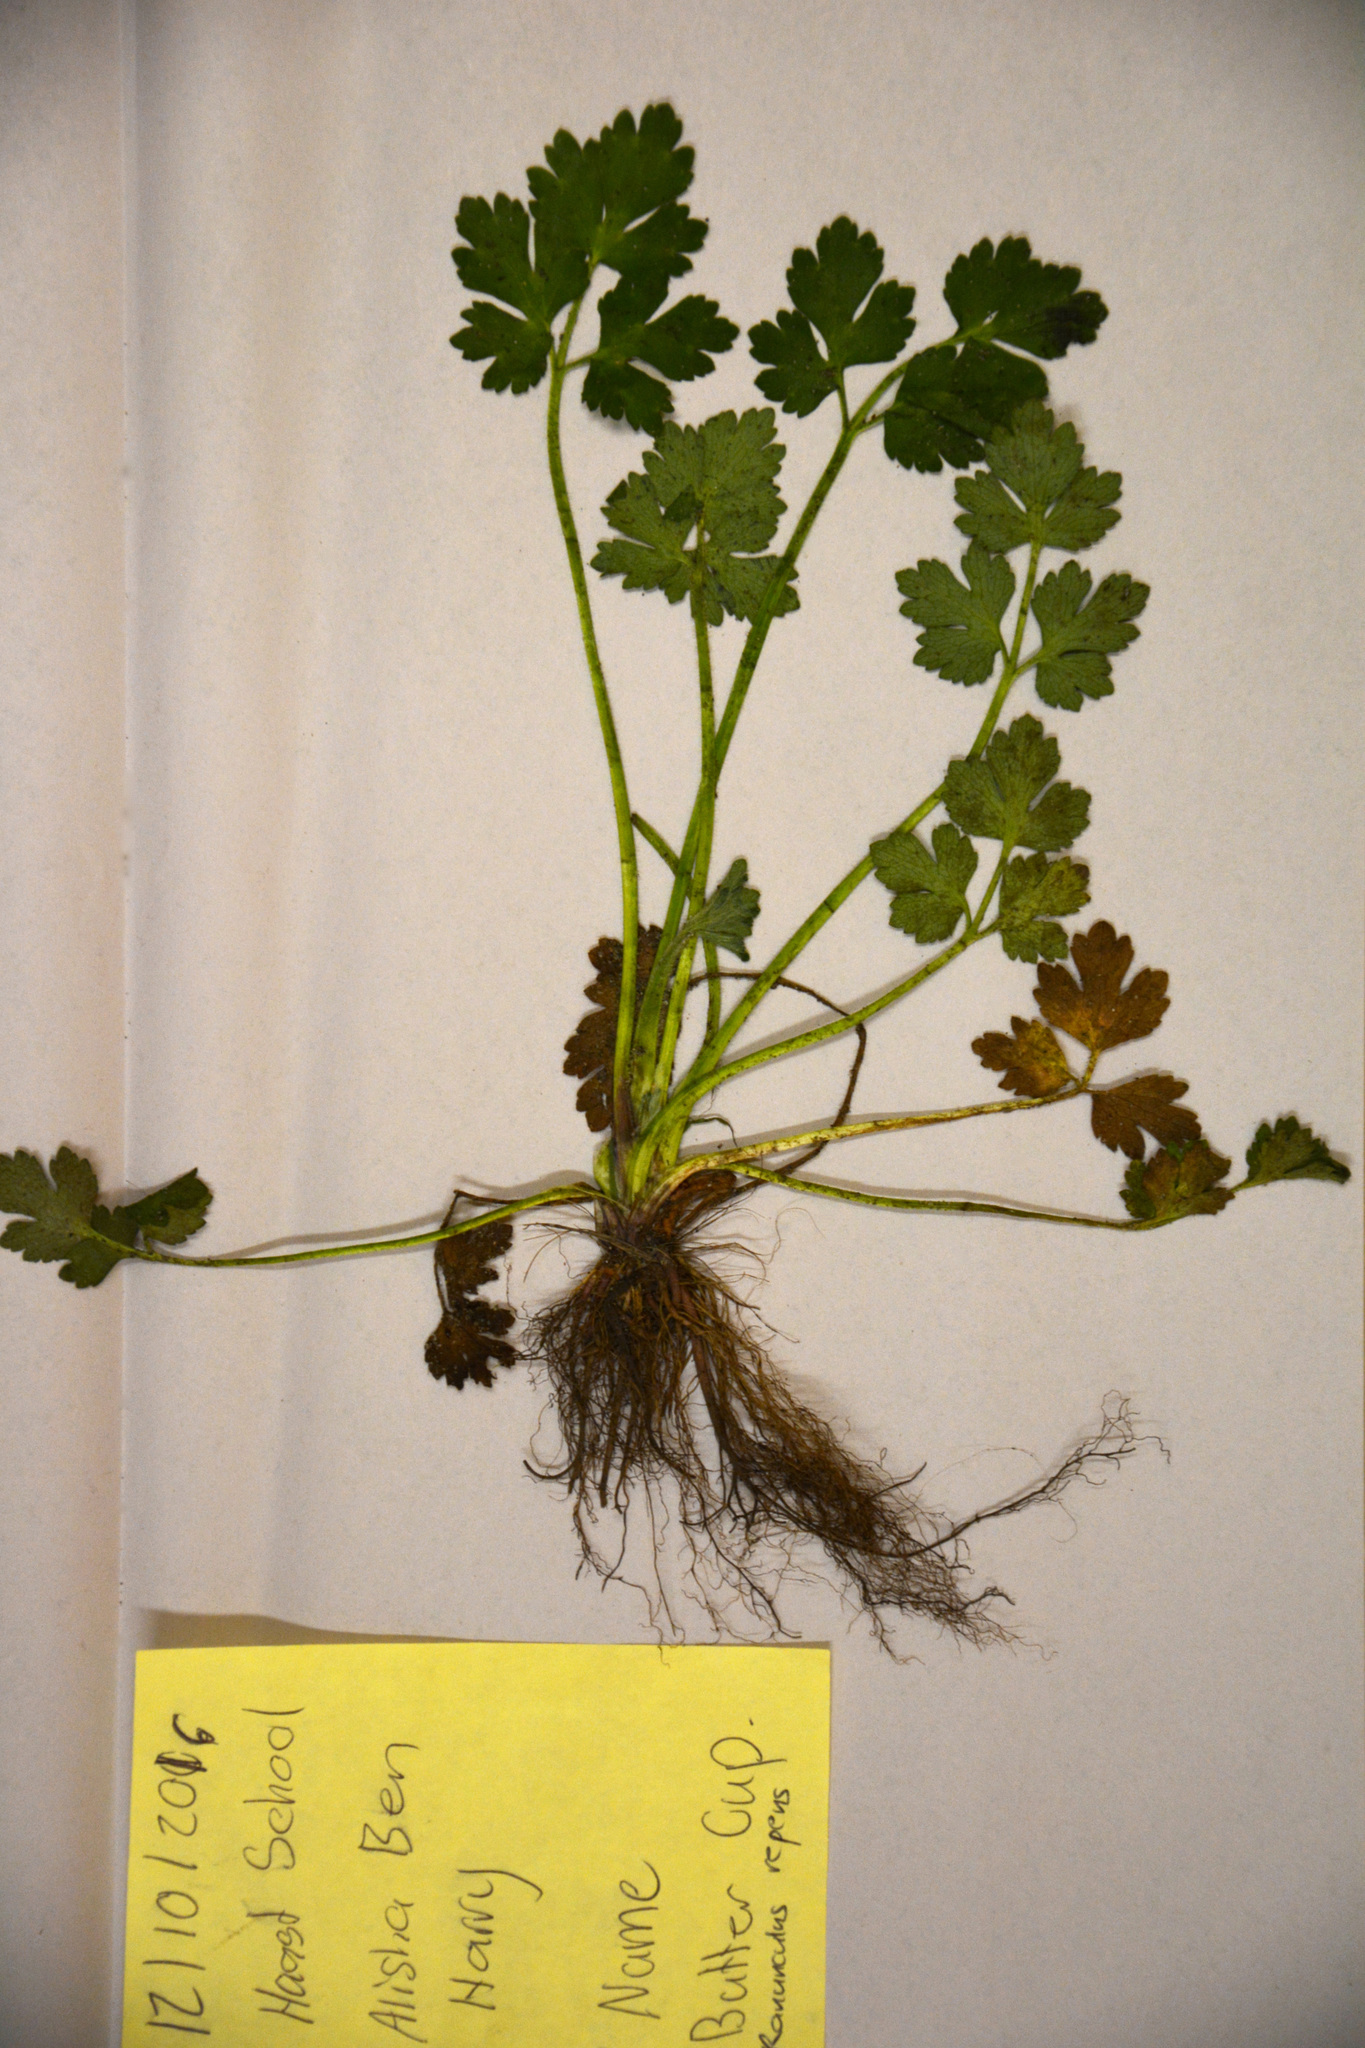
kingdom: Plantae
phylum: Tracheophyta
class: Magnoliopsida
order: Ranunculales
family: Ranunculaceae
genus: Ranunculus
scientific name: Ranunculus repens
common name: Creeping buttercup
